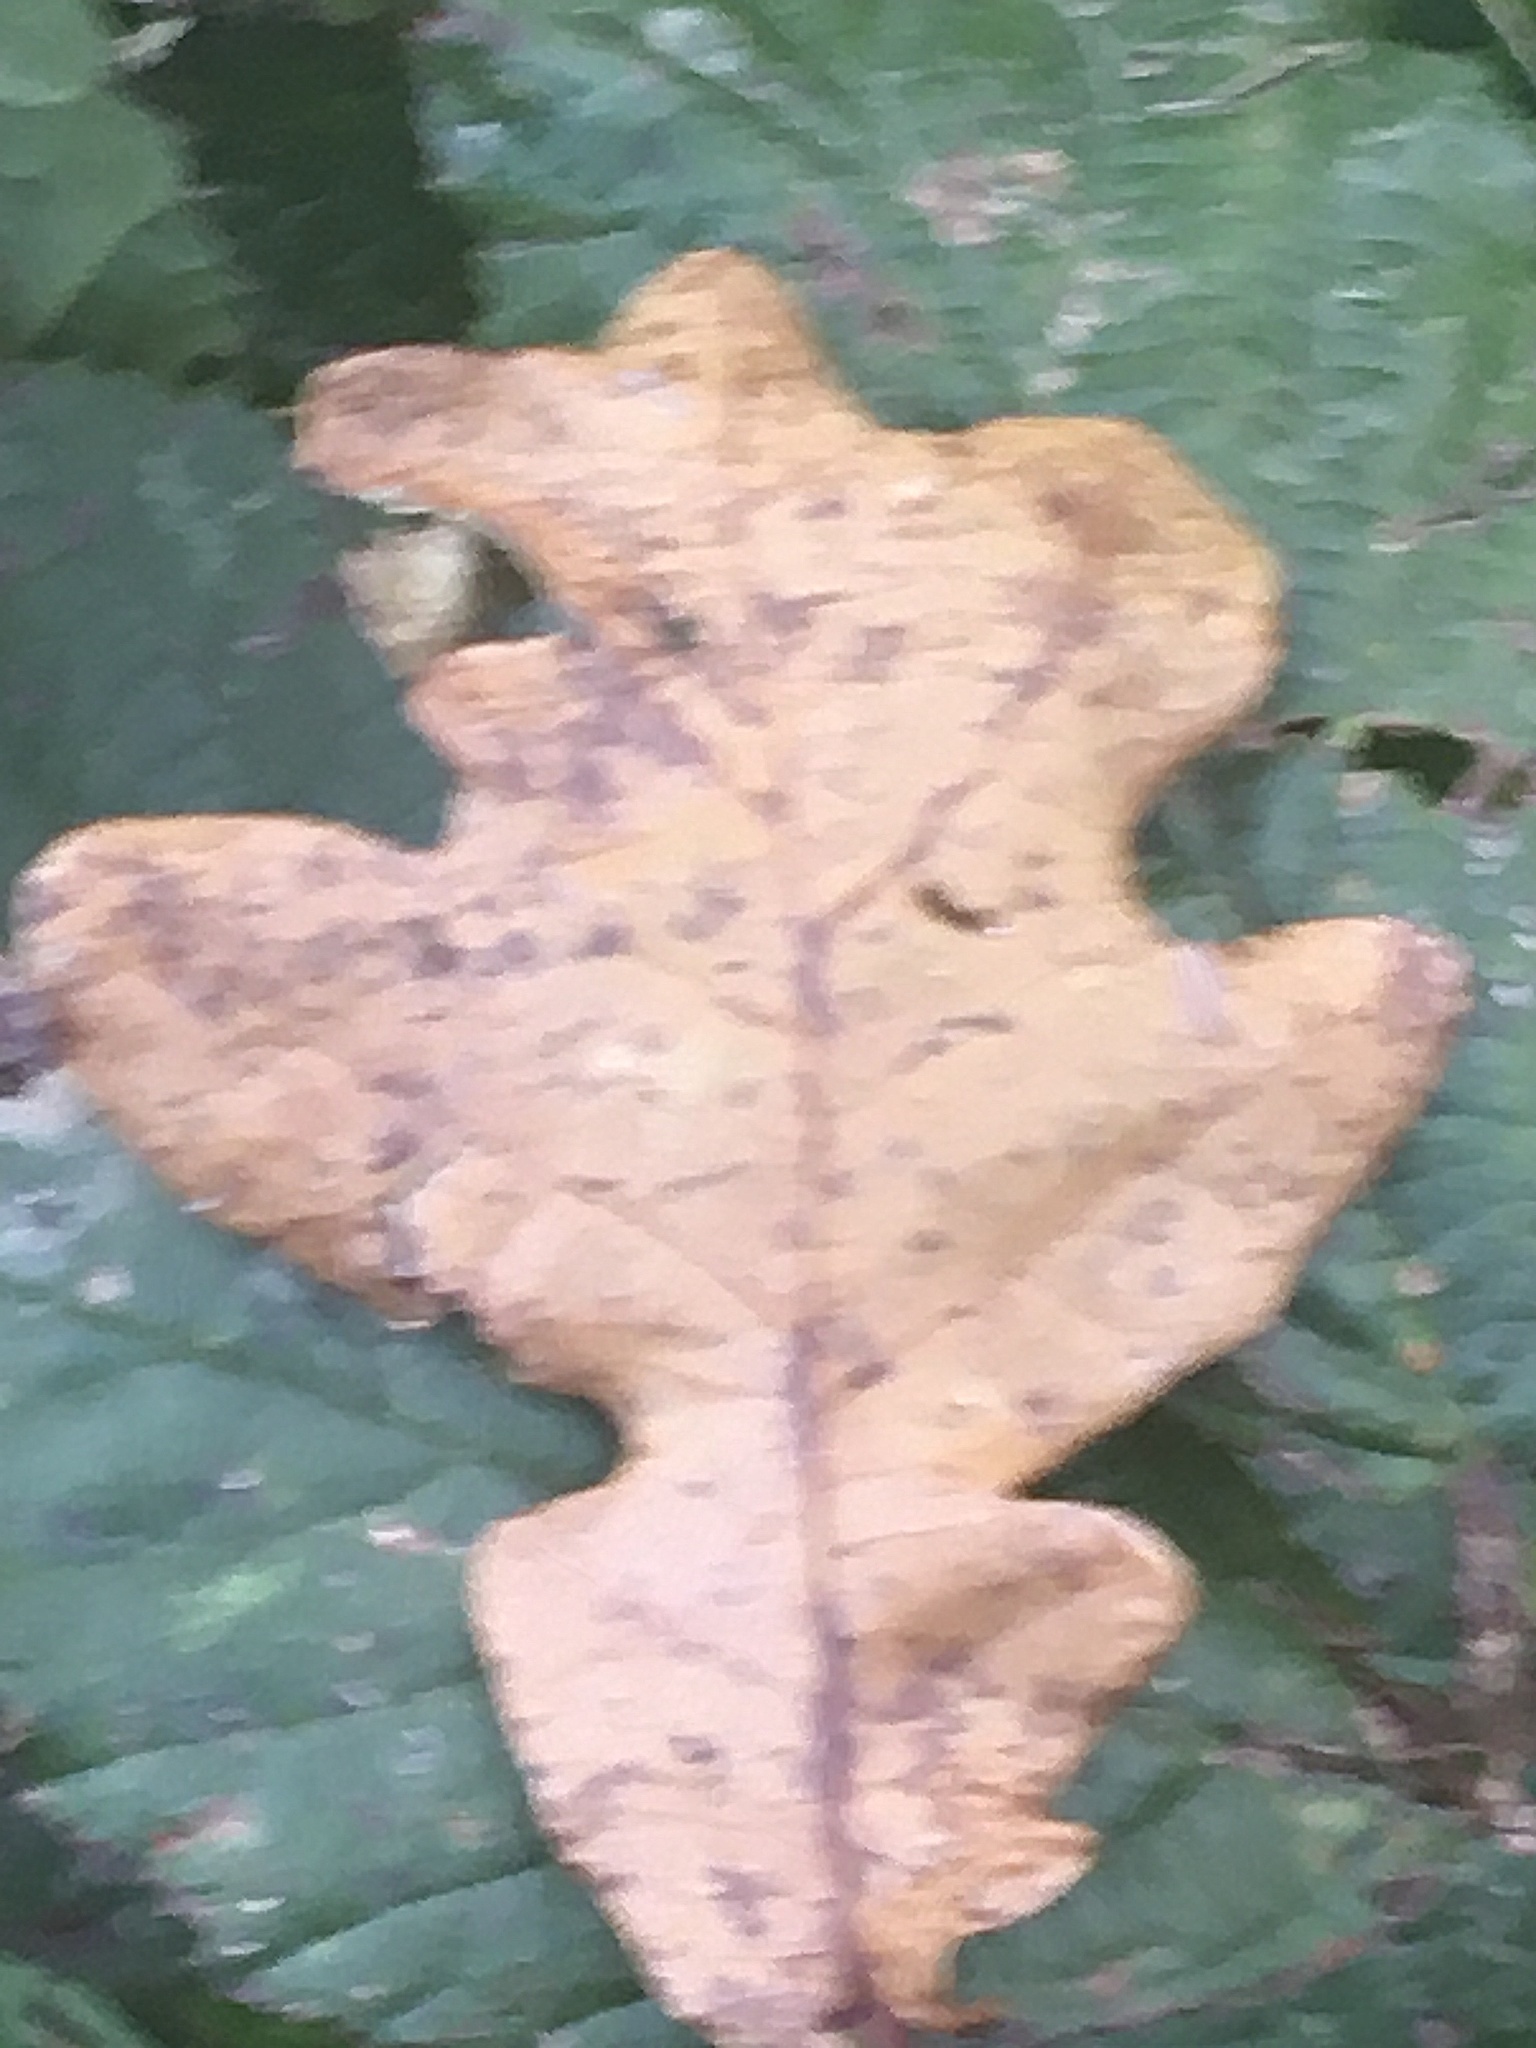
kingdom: Plantae
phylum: Tracheophyta
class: Magnoliopsida
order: Fagales
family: Fagaceae
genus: Quercus
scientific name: Quercus robur
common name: Pedunculate oak
